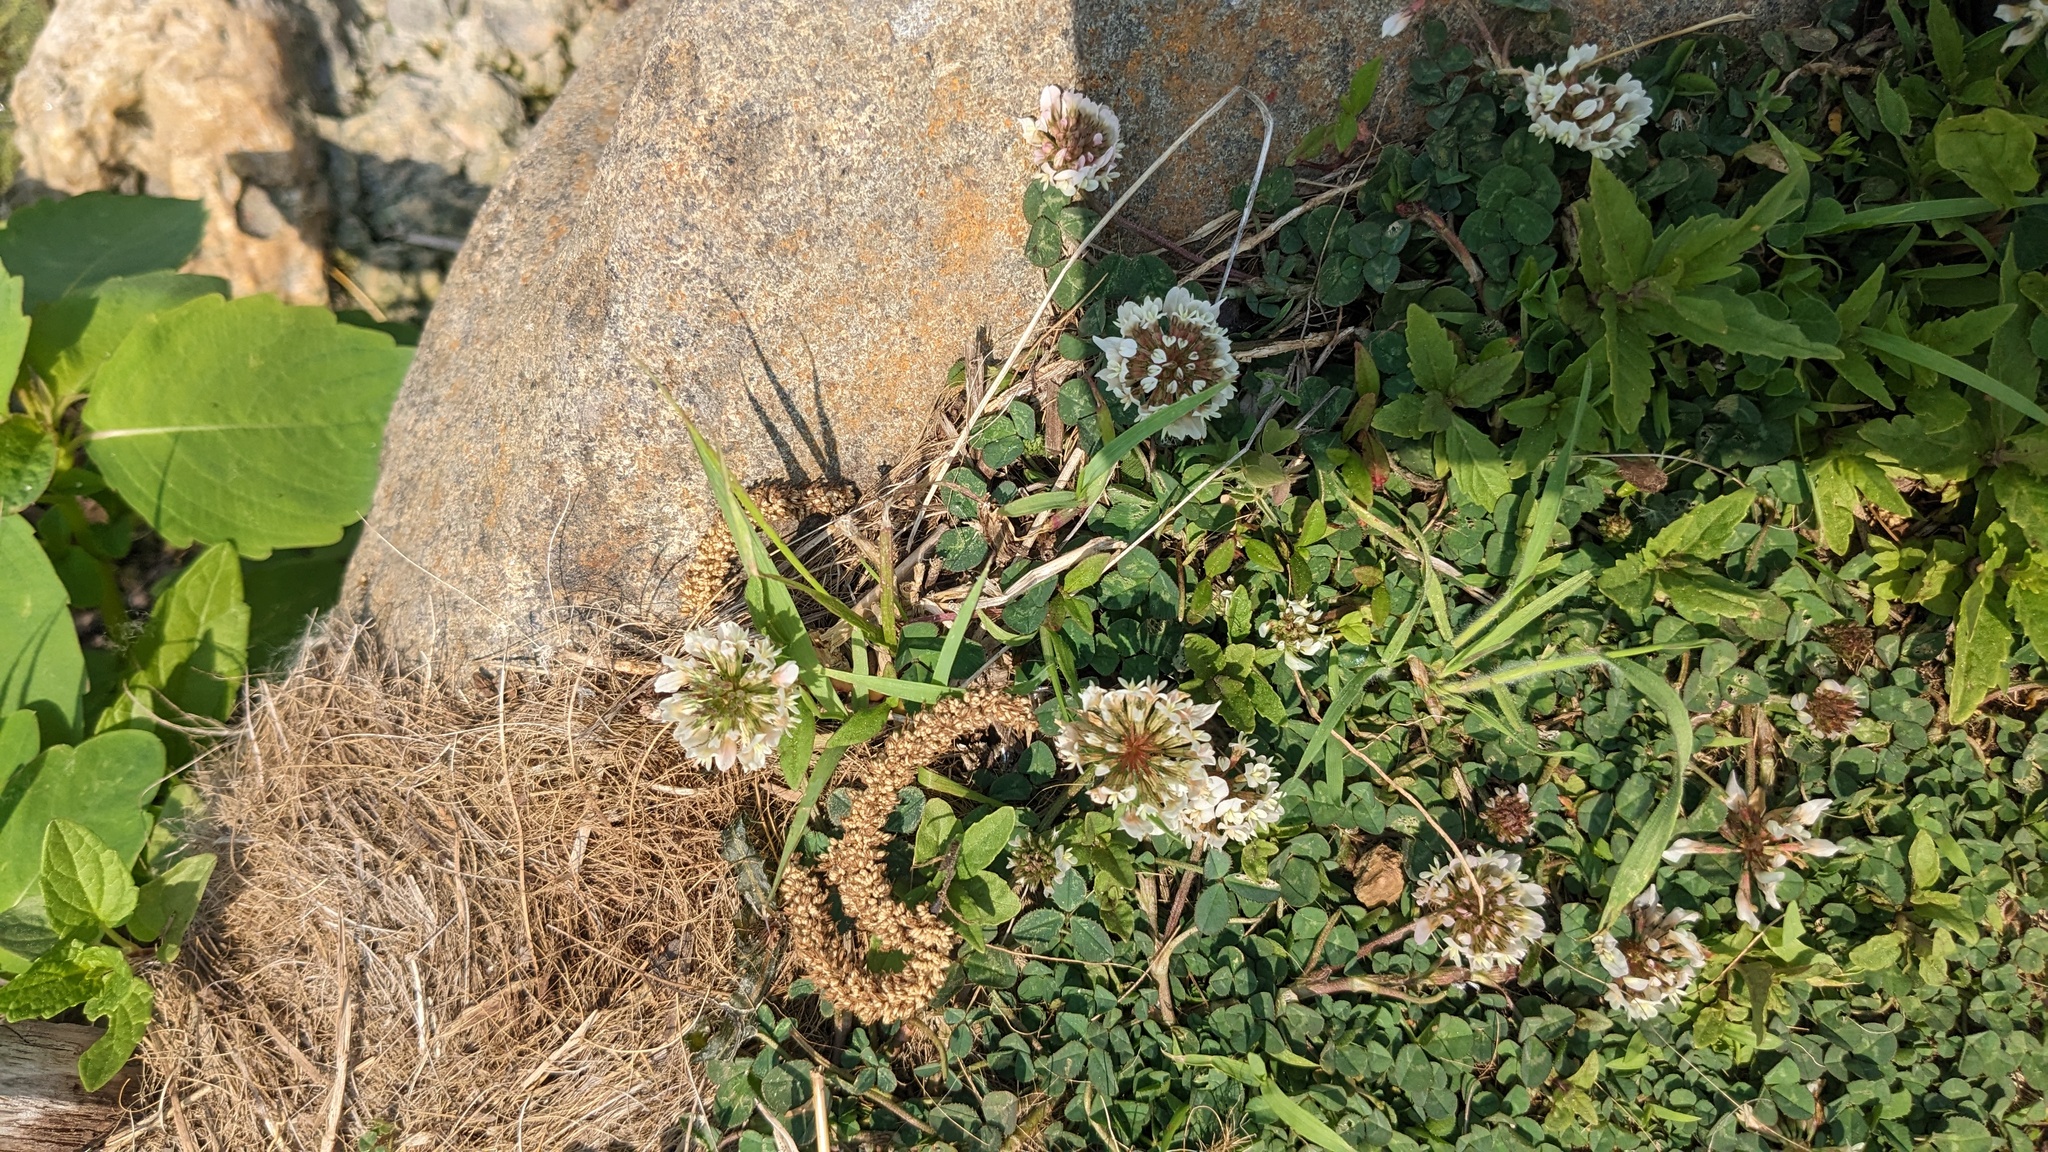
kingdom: Plantae
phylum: Tracheophyta
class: Magnoliopsida
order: Fabales
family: Fabaceae
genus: Trifolium
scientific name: Trifolium repens
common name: White clover
